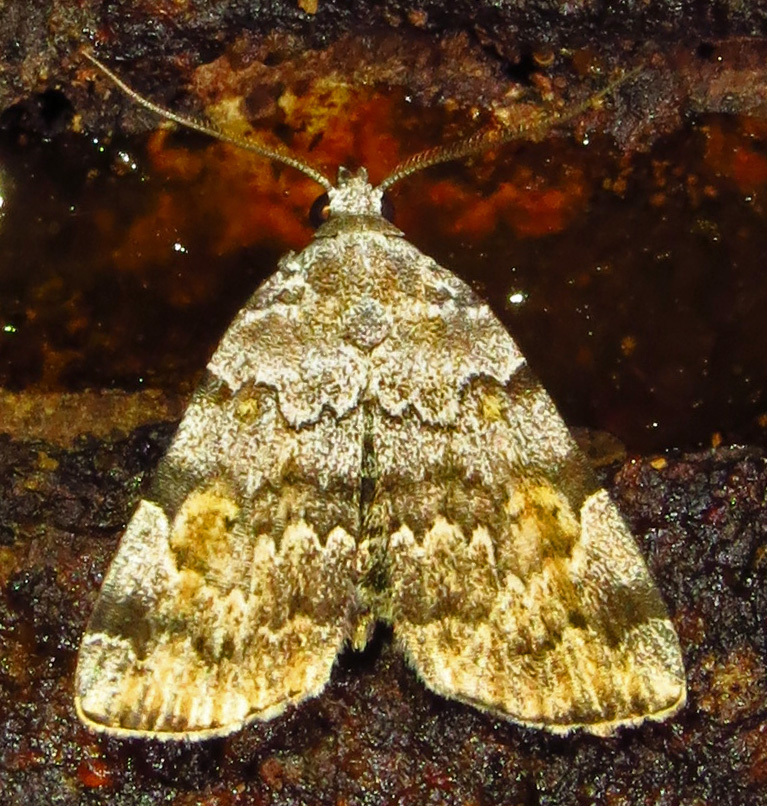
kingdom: Animalia
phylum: Arthropoda
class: Insecta
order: Lepidoptera
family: Erebidae
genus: Idia
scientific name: Idia americalis
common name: American idia moth
